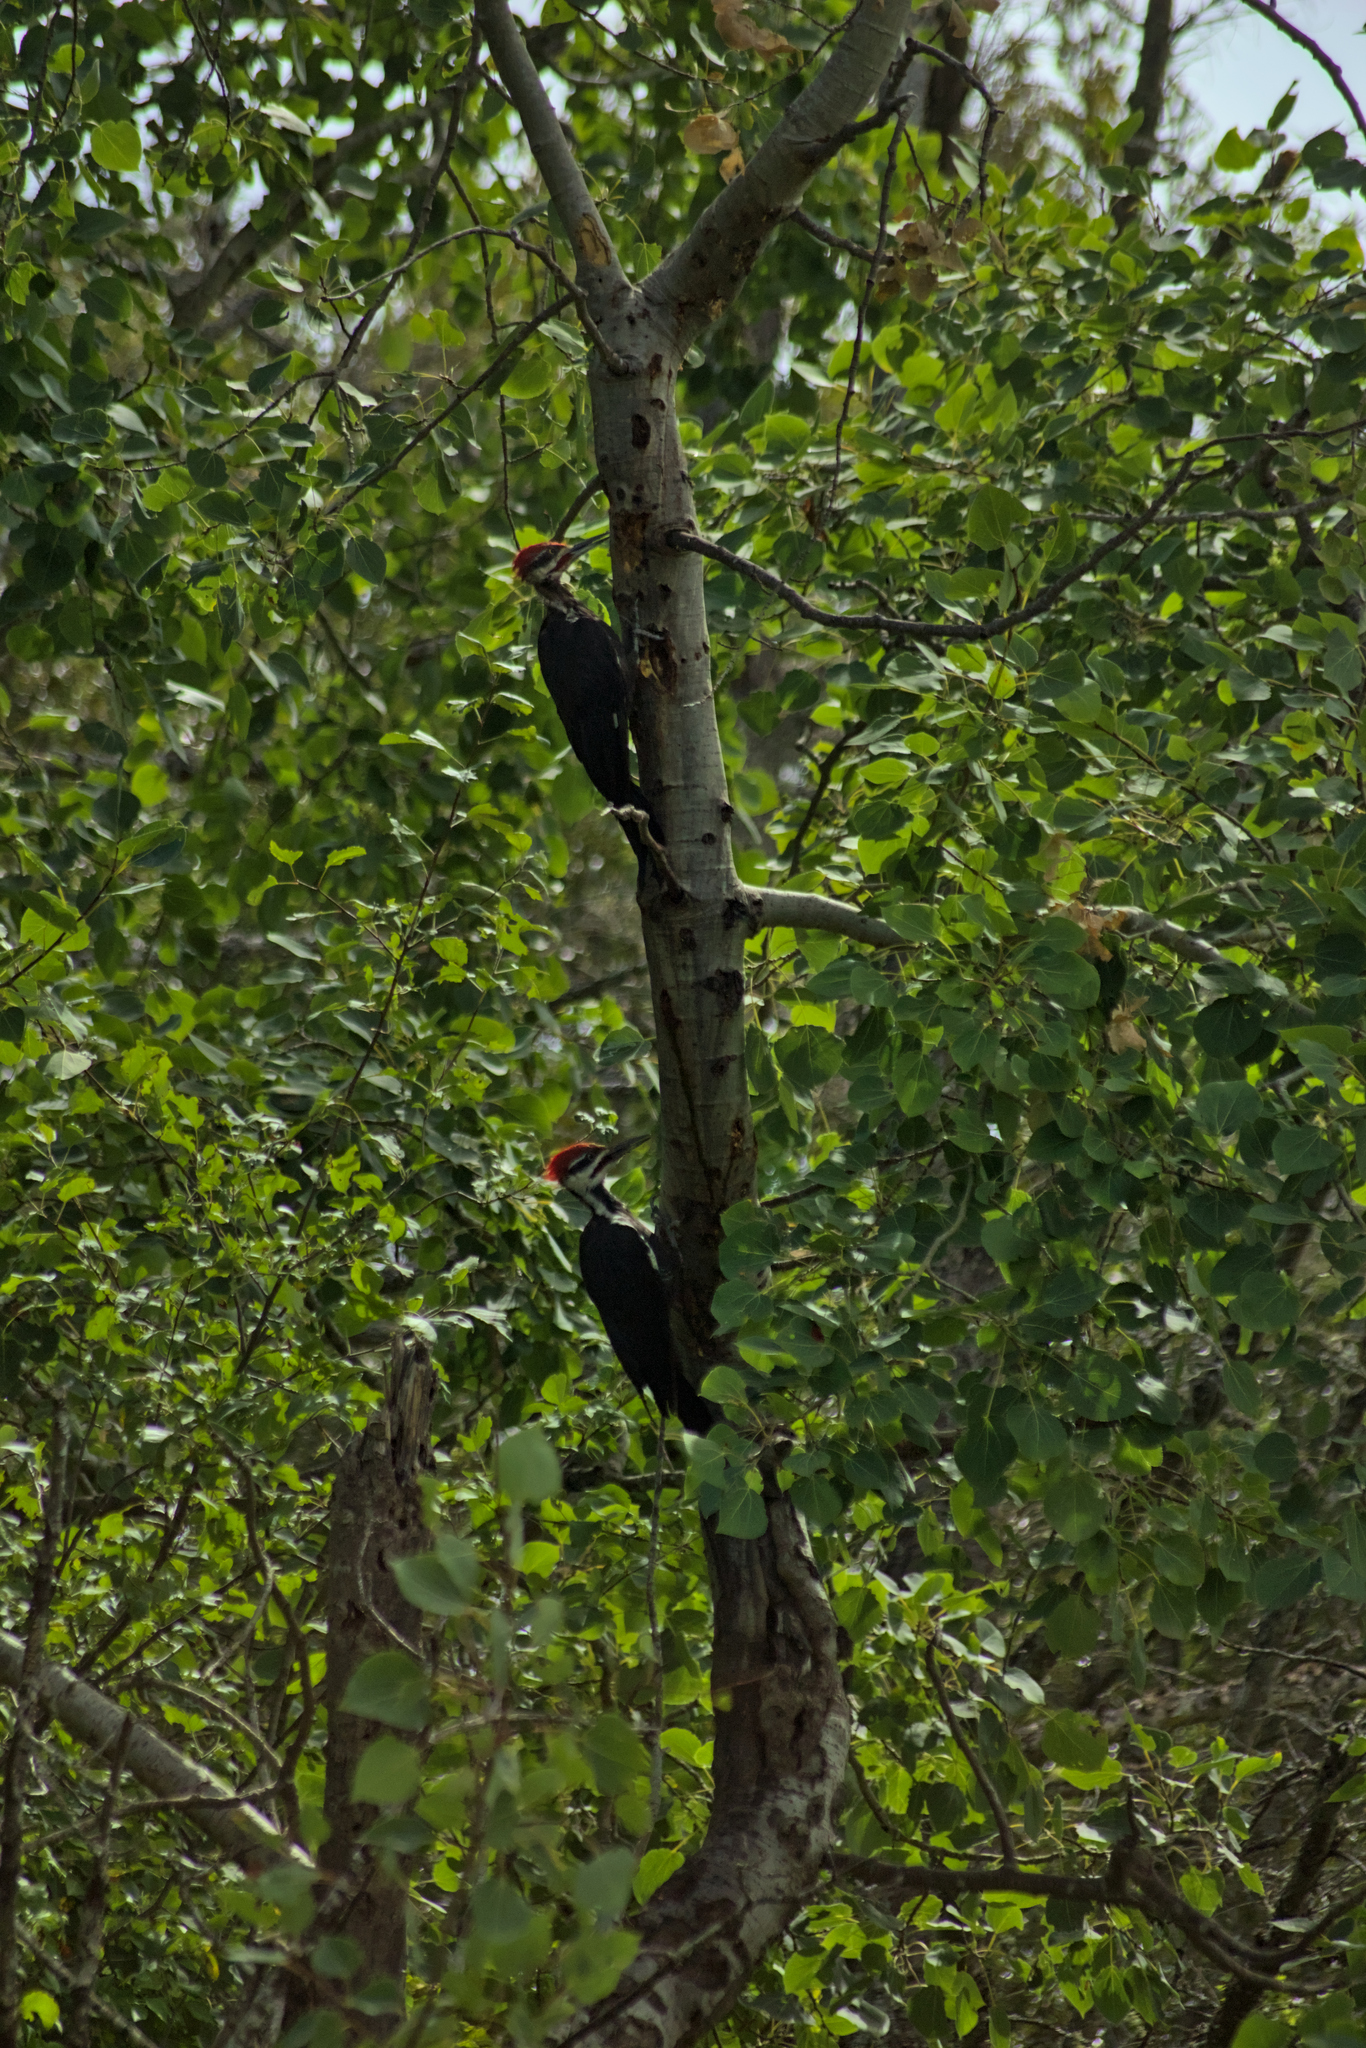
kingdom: Animalia
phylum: Chordata
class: Aves
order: Piciformes
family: Picidae
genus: Dryocopus
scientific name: Dryocopus pileatus
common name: Pileated woodpecker
